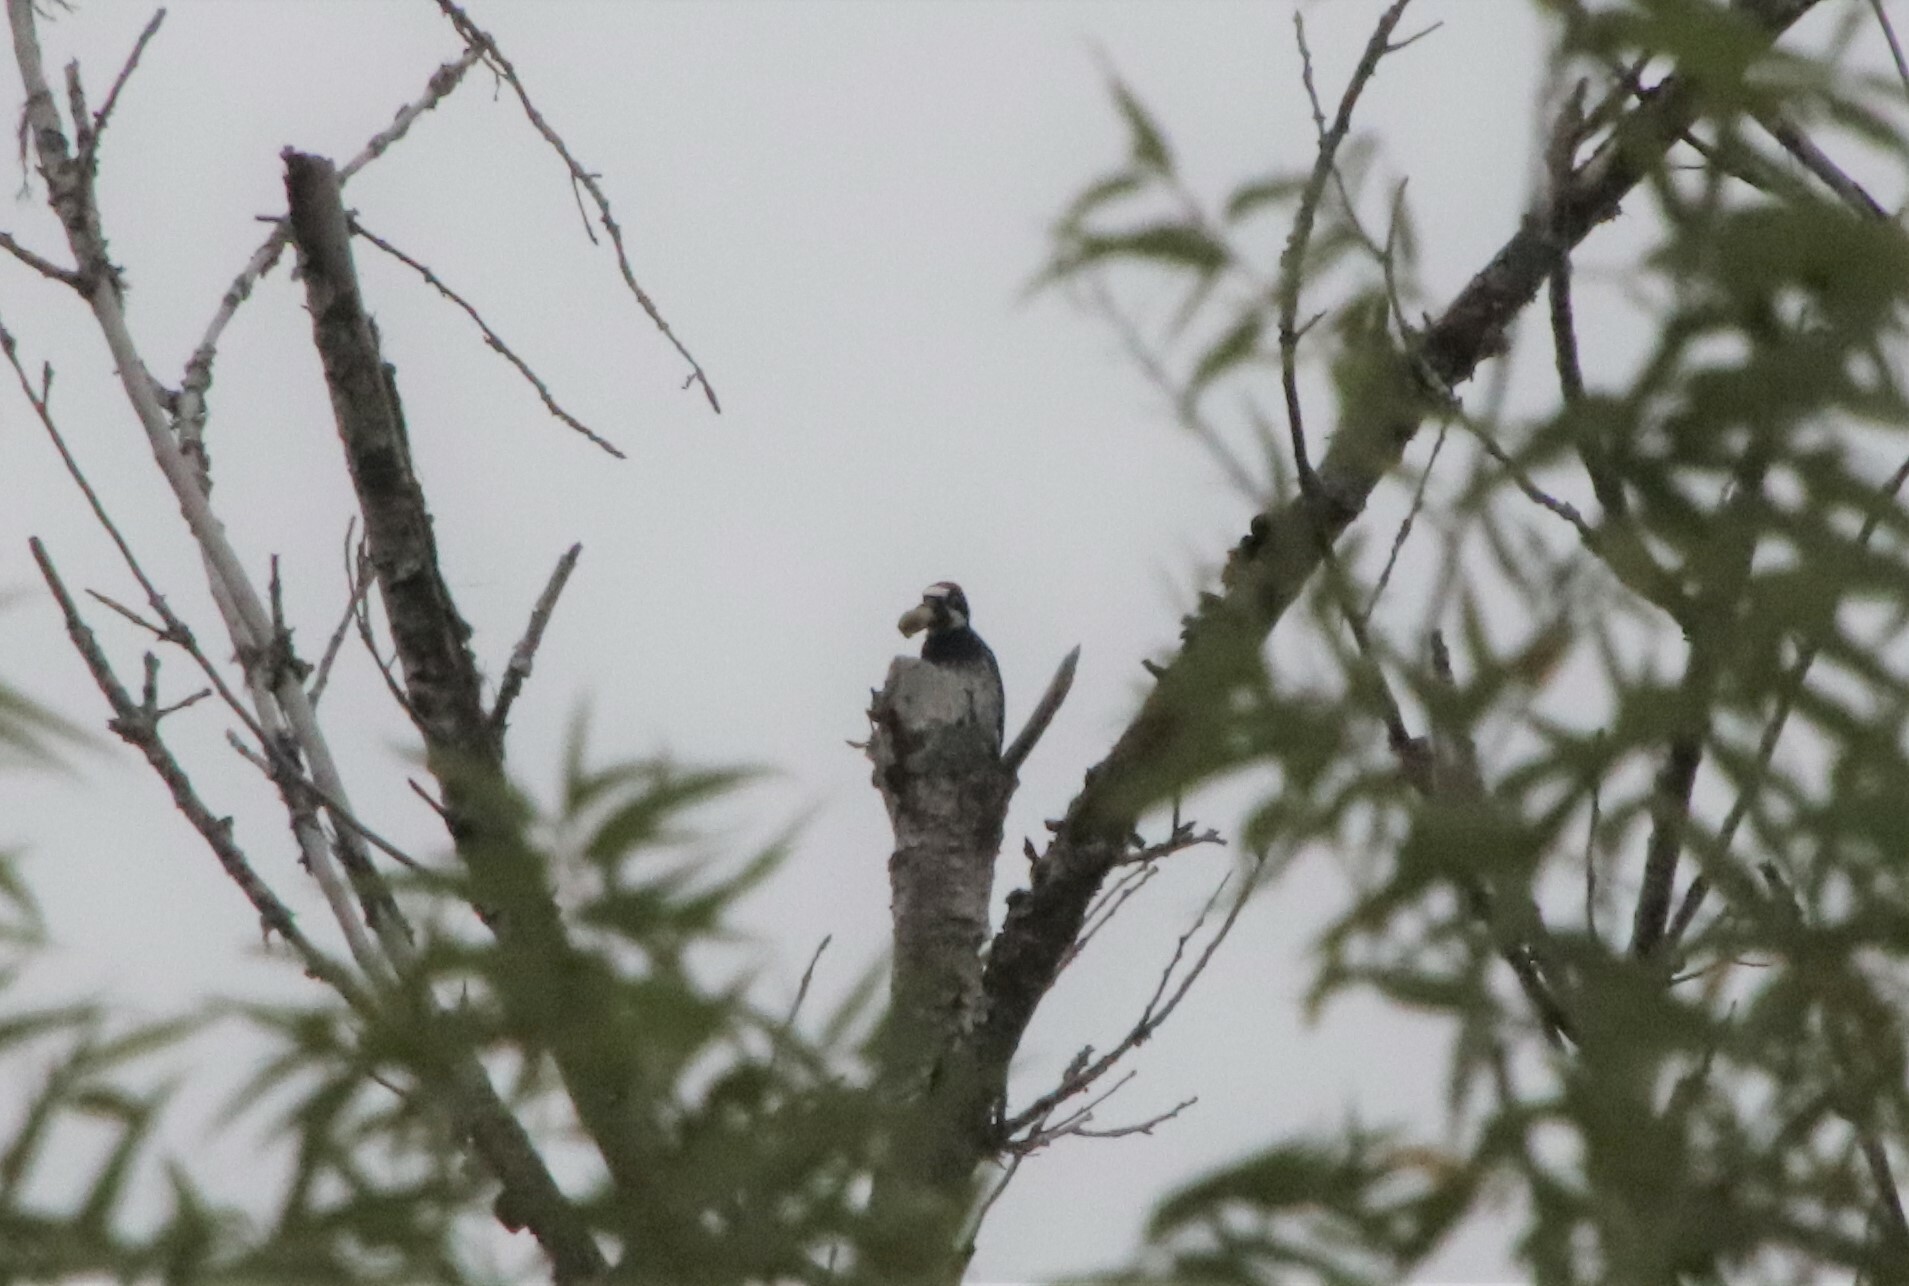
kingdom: Animalia
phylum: Chordata
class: Aves
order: Piciformes
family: Picidae
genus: Melanerpes
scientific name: Melanerpes formicivorus
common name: Acorn woodpecker
